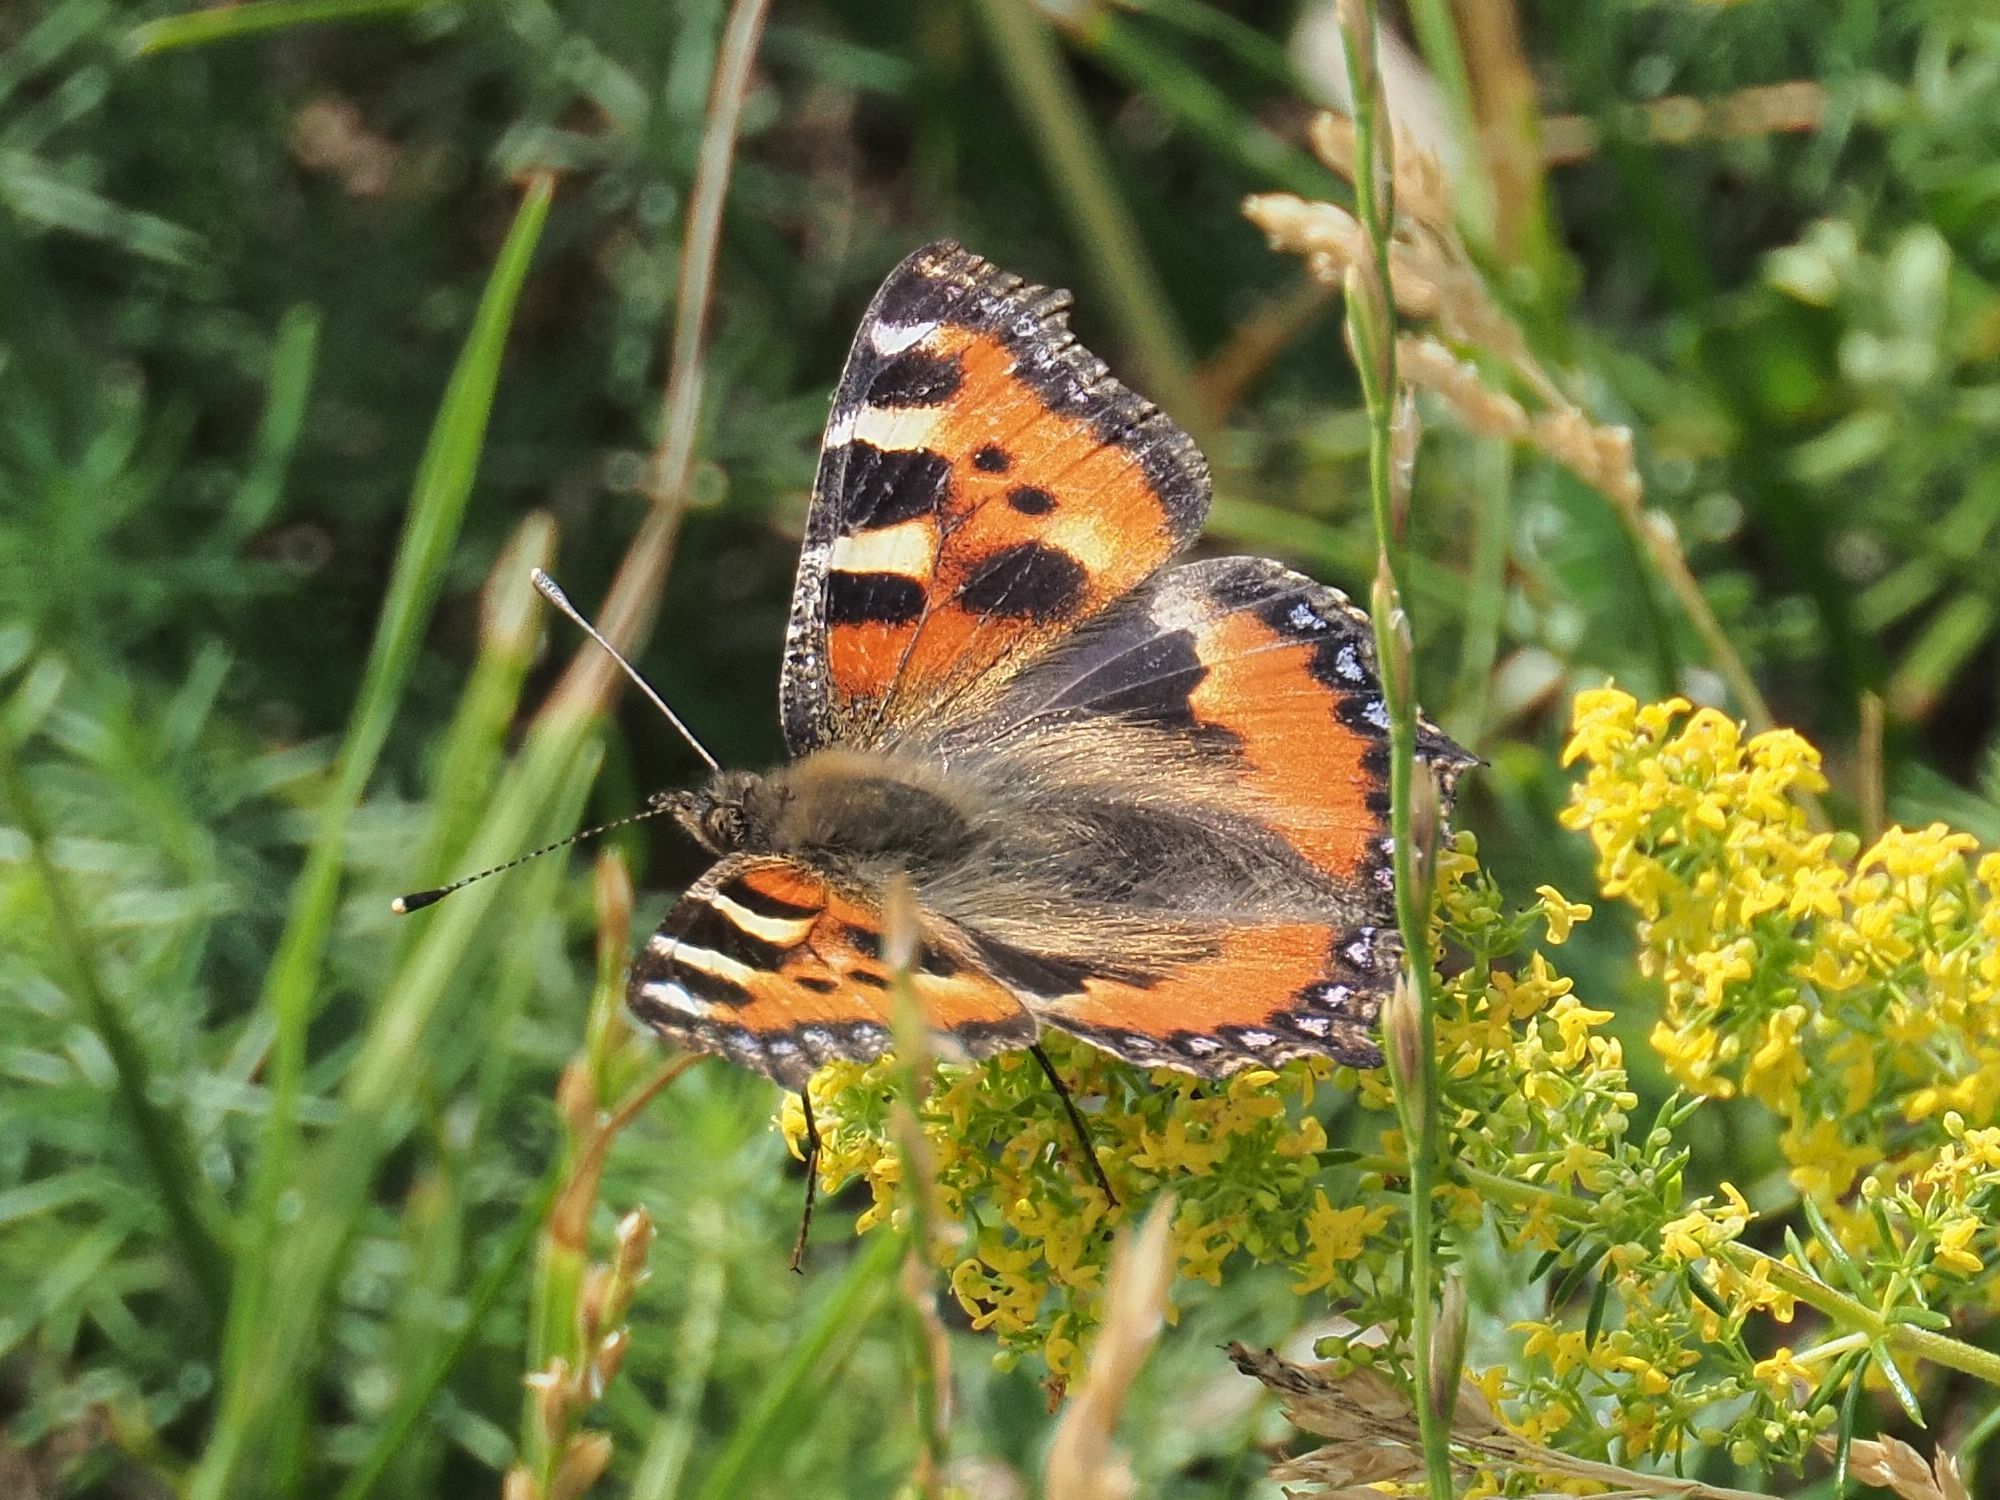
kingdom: Animalia
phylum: Arthropoda
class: Insecta
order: Lepidoptera
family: Nymphalidae
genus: Aglais
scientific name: Aglais urticae
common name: Small tortoiseshell
